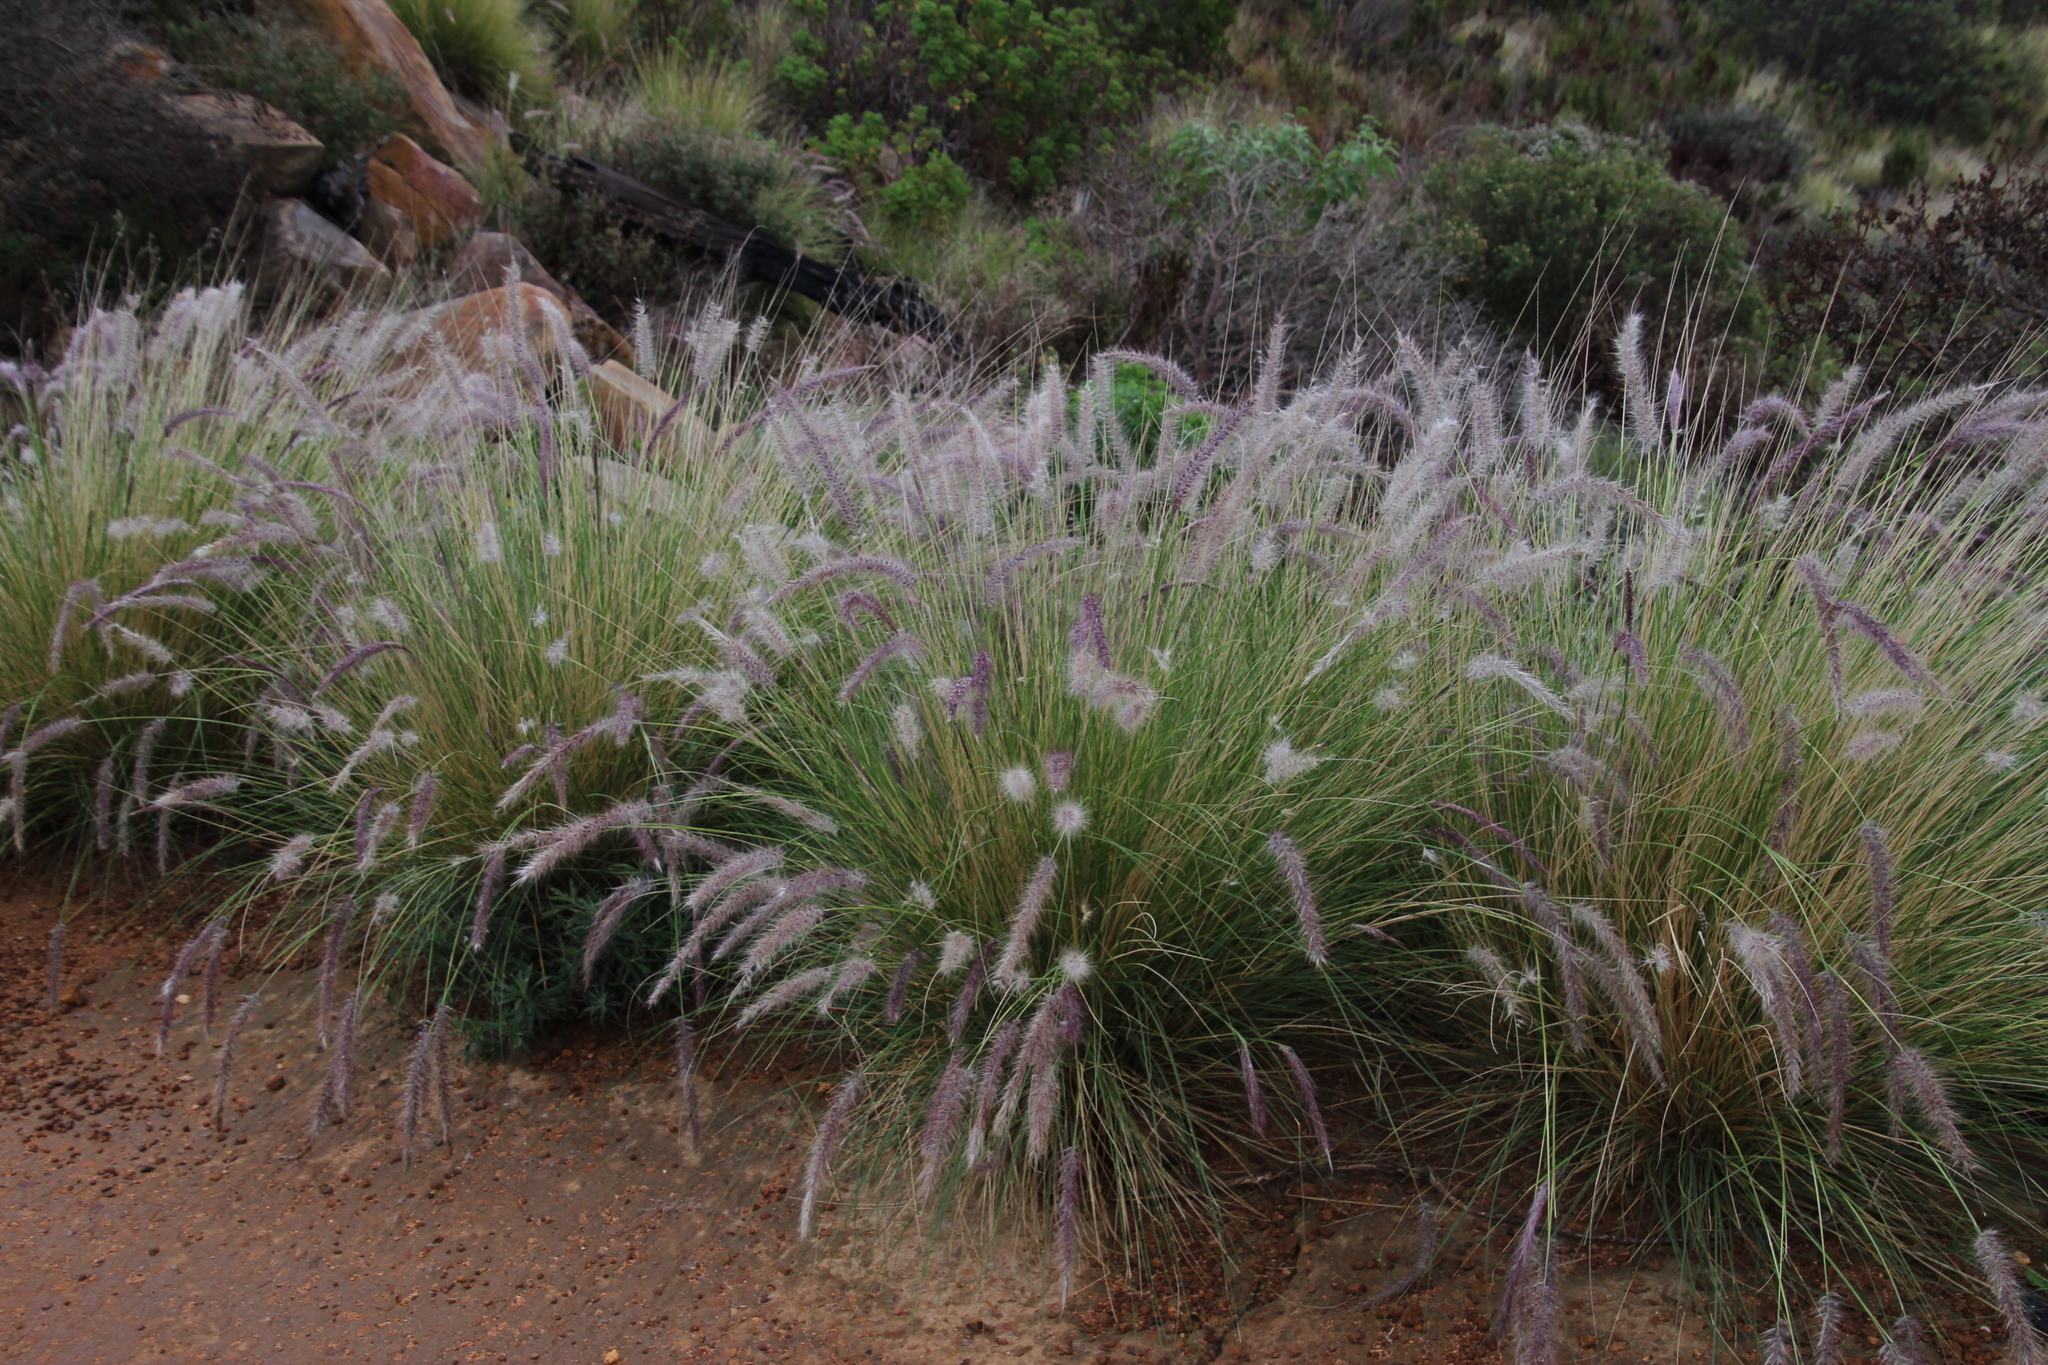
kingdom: Plantae
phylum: Tracheophyta
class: Liliopsida
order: Poales
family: Poaceae
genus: Cenchrus
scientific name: Cenchrus setaceus
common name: Crimson fountaingrass
